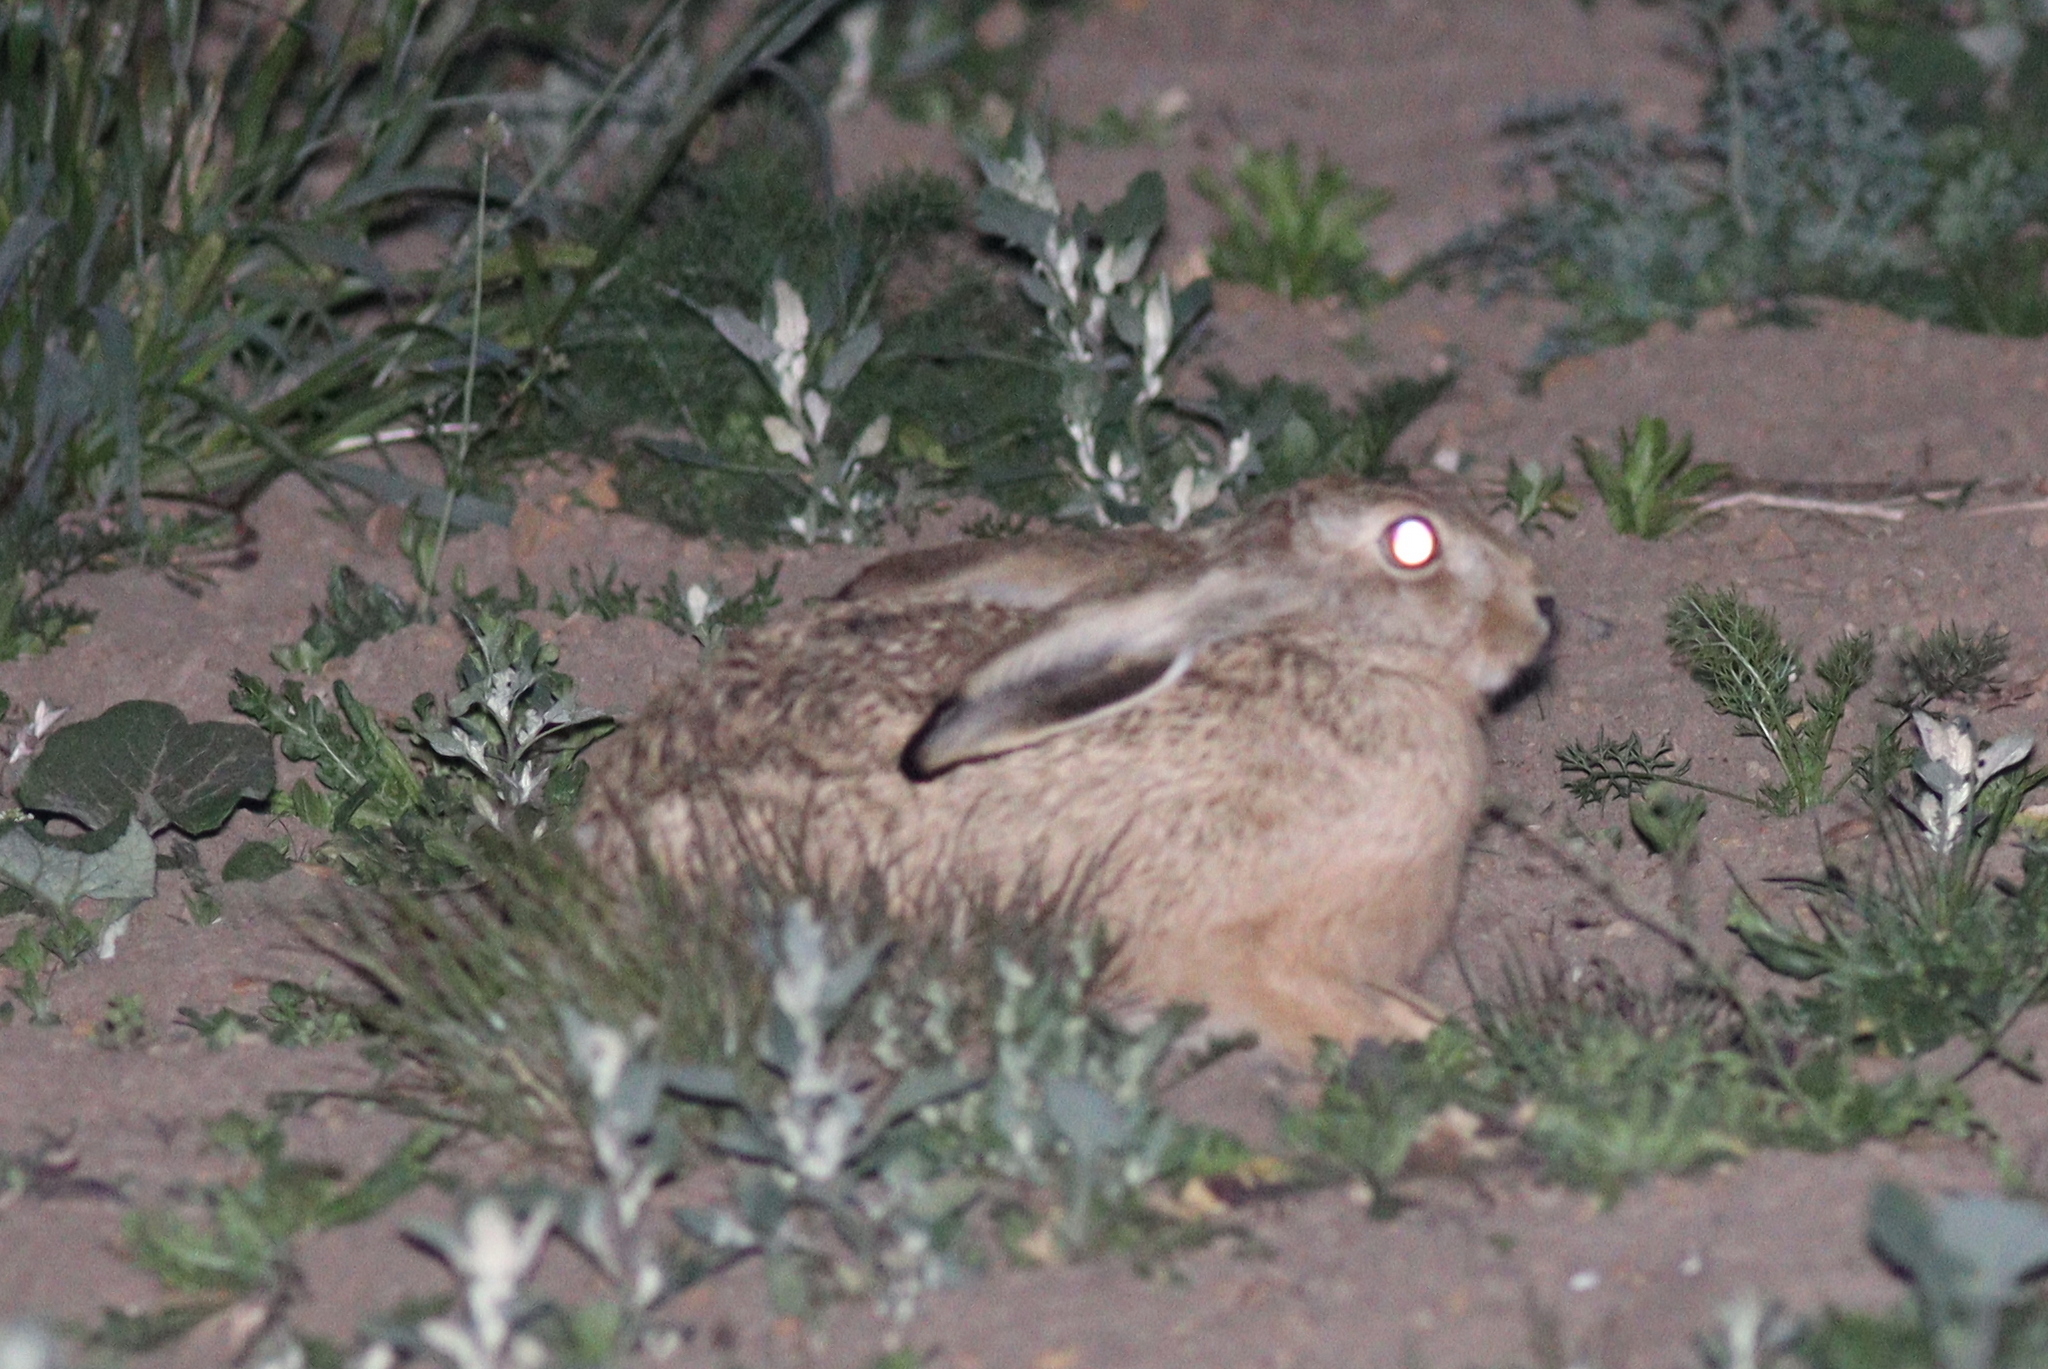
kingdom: Animalia
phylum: Chordata
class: Mammalia
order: Lagomorpha
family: Leporidae
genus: Lepus
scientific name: Lepus europaeus
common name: European hare
